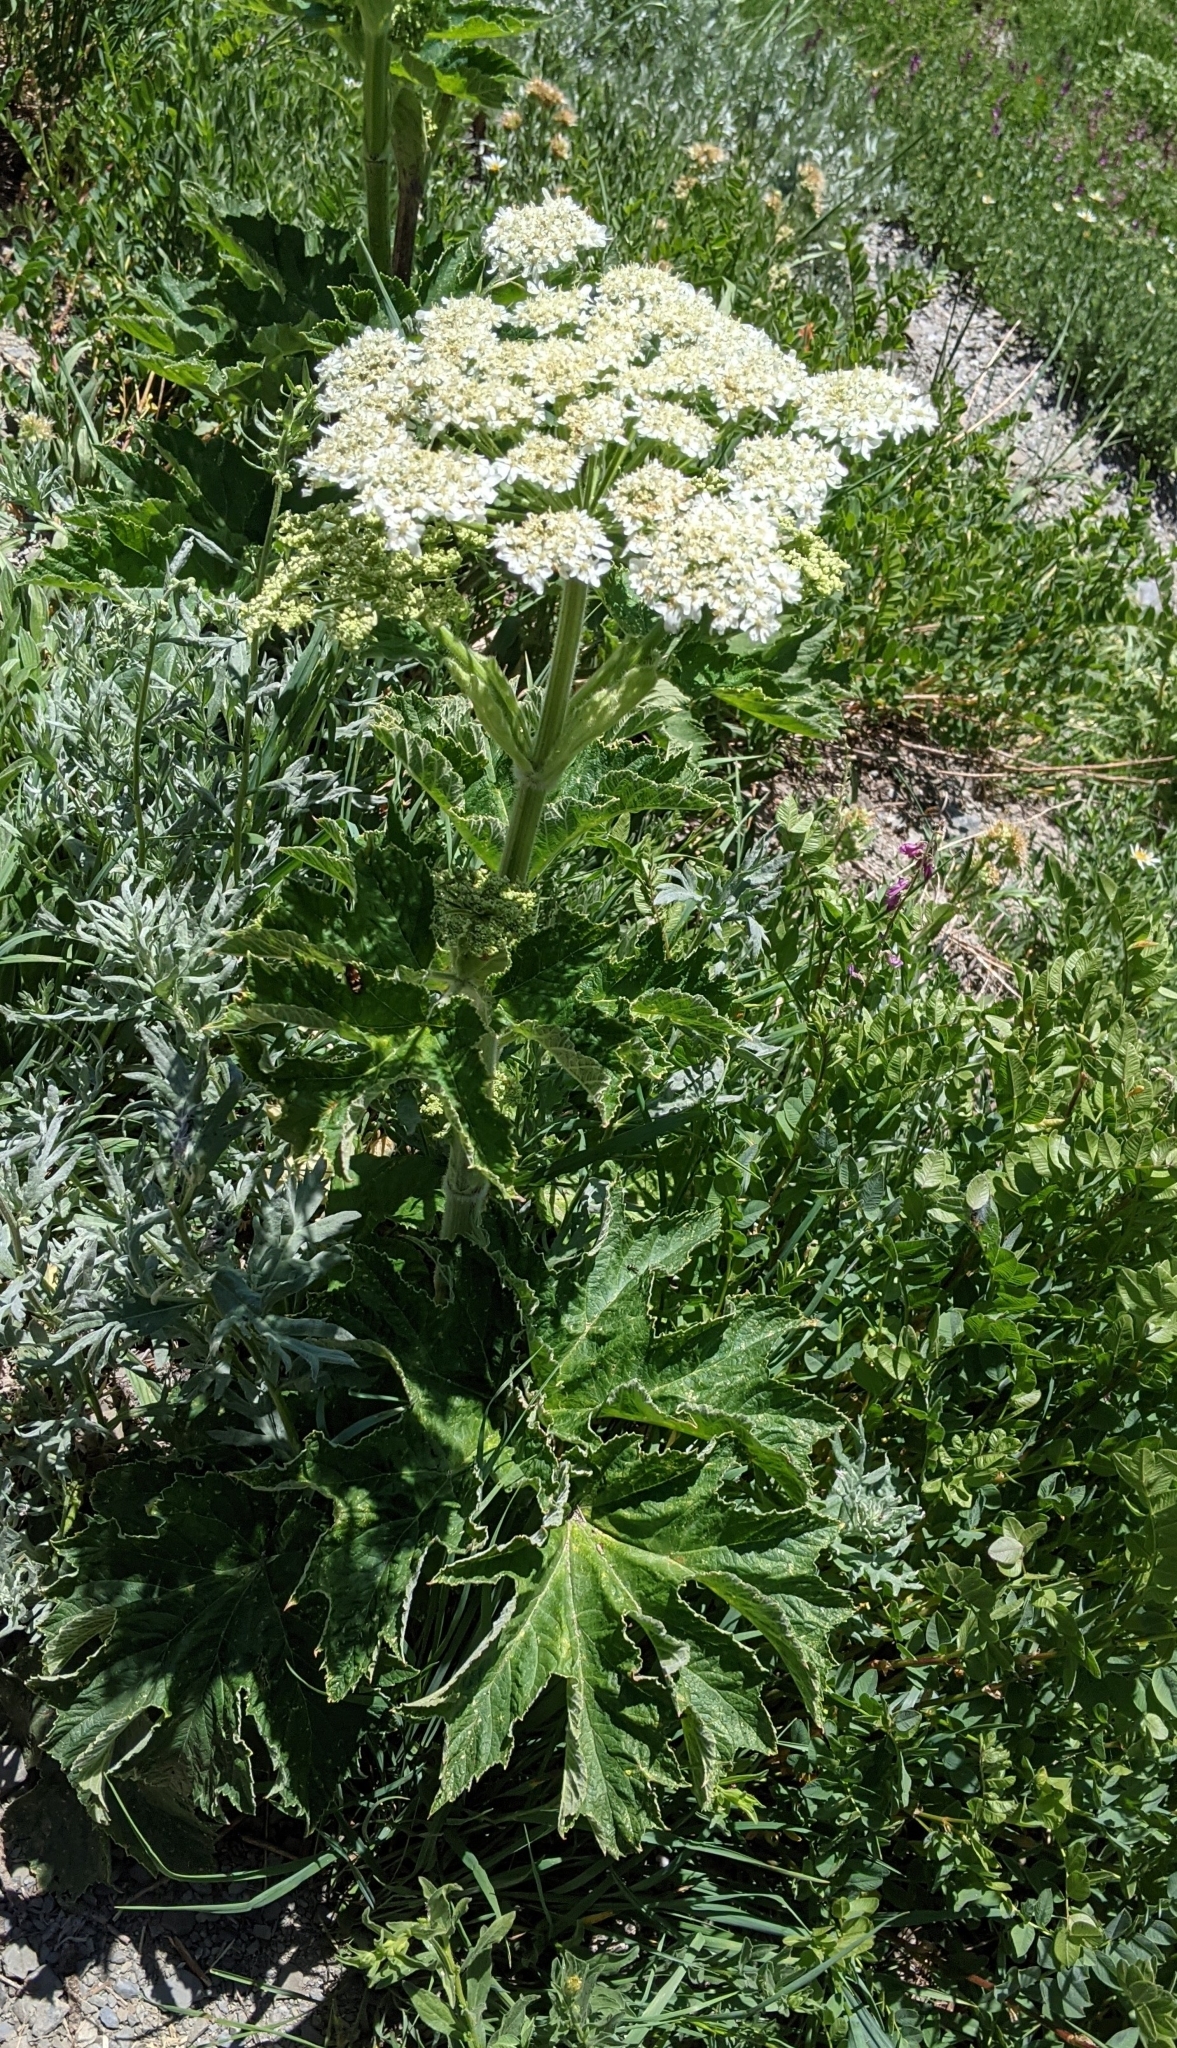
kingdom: Plantae
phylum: Tracheophyta
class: Magnoliopsida
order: Apiales
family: Apiaceae
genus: Heracleum
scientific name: Heracleum maximum
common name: American cow parsnip
